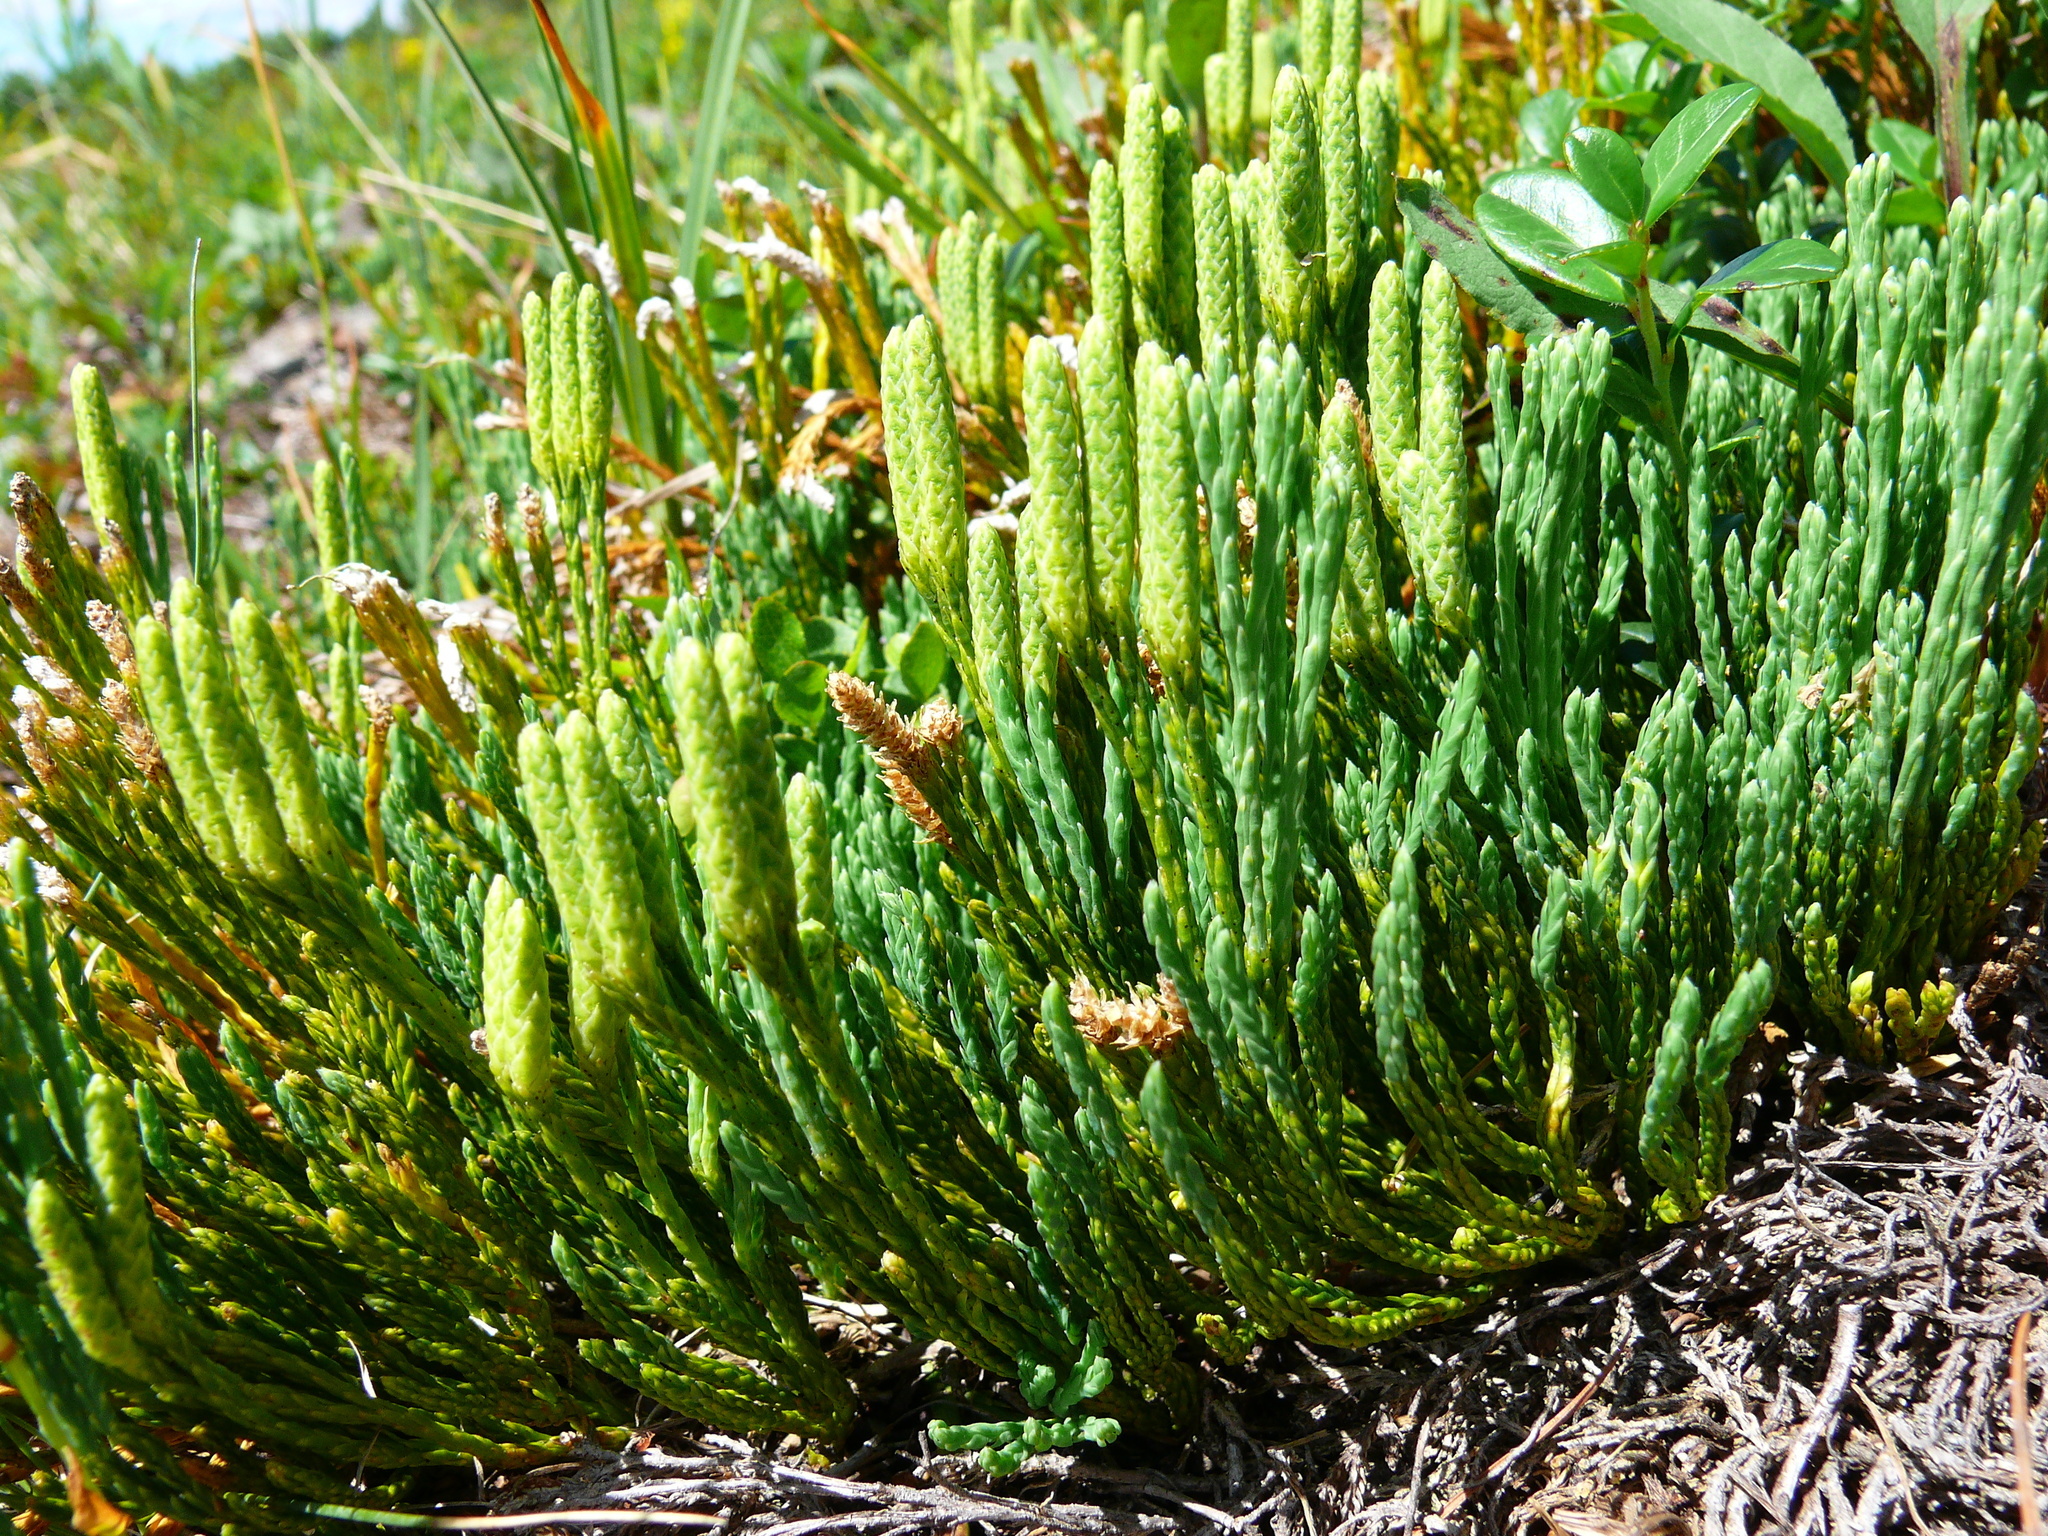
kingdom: Plantae
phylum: Tracheophyta
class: Lycopodiopsida
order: Lycopodiales
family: Lycopodiaceae
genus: Diphasiastrum
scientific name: Diphasiastrum alpinum
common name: Alpine clubmoss
